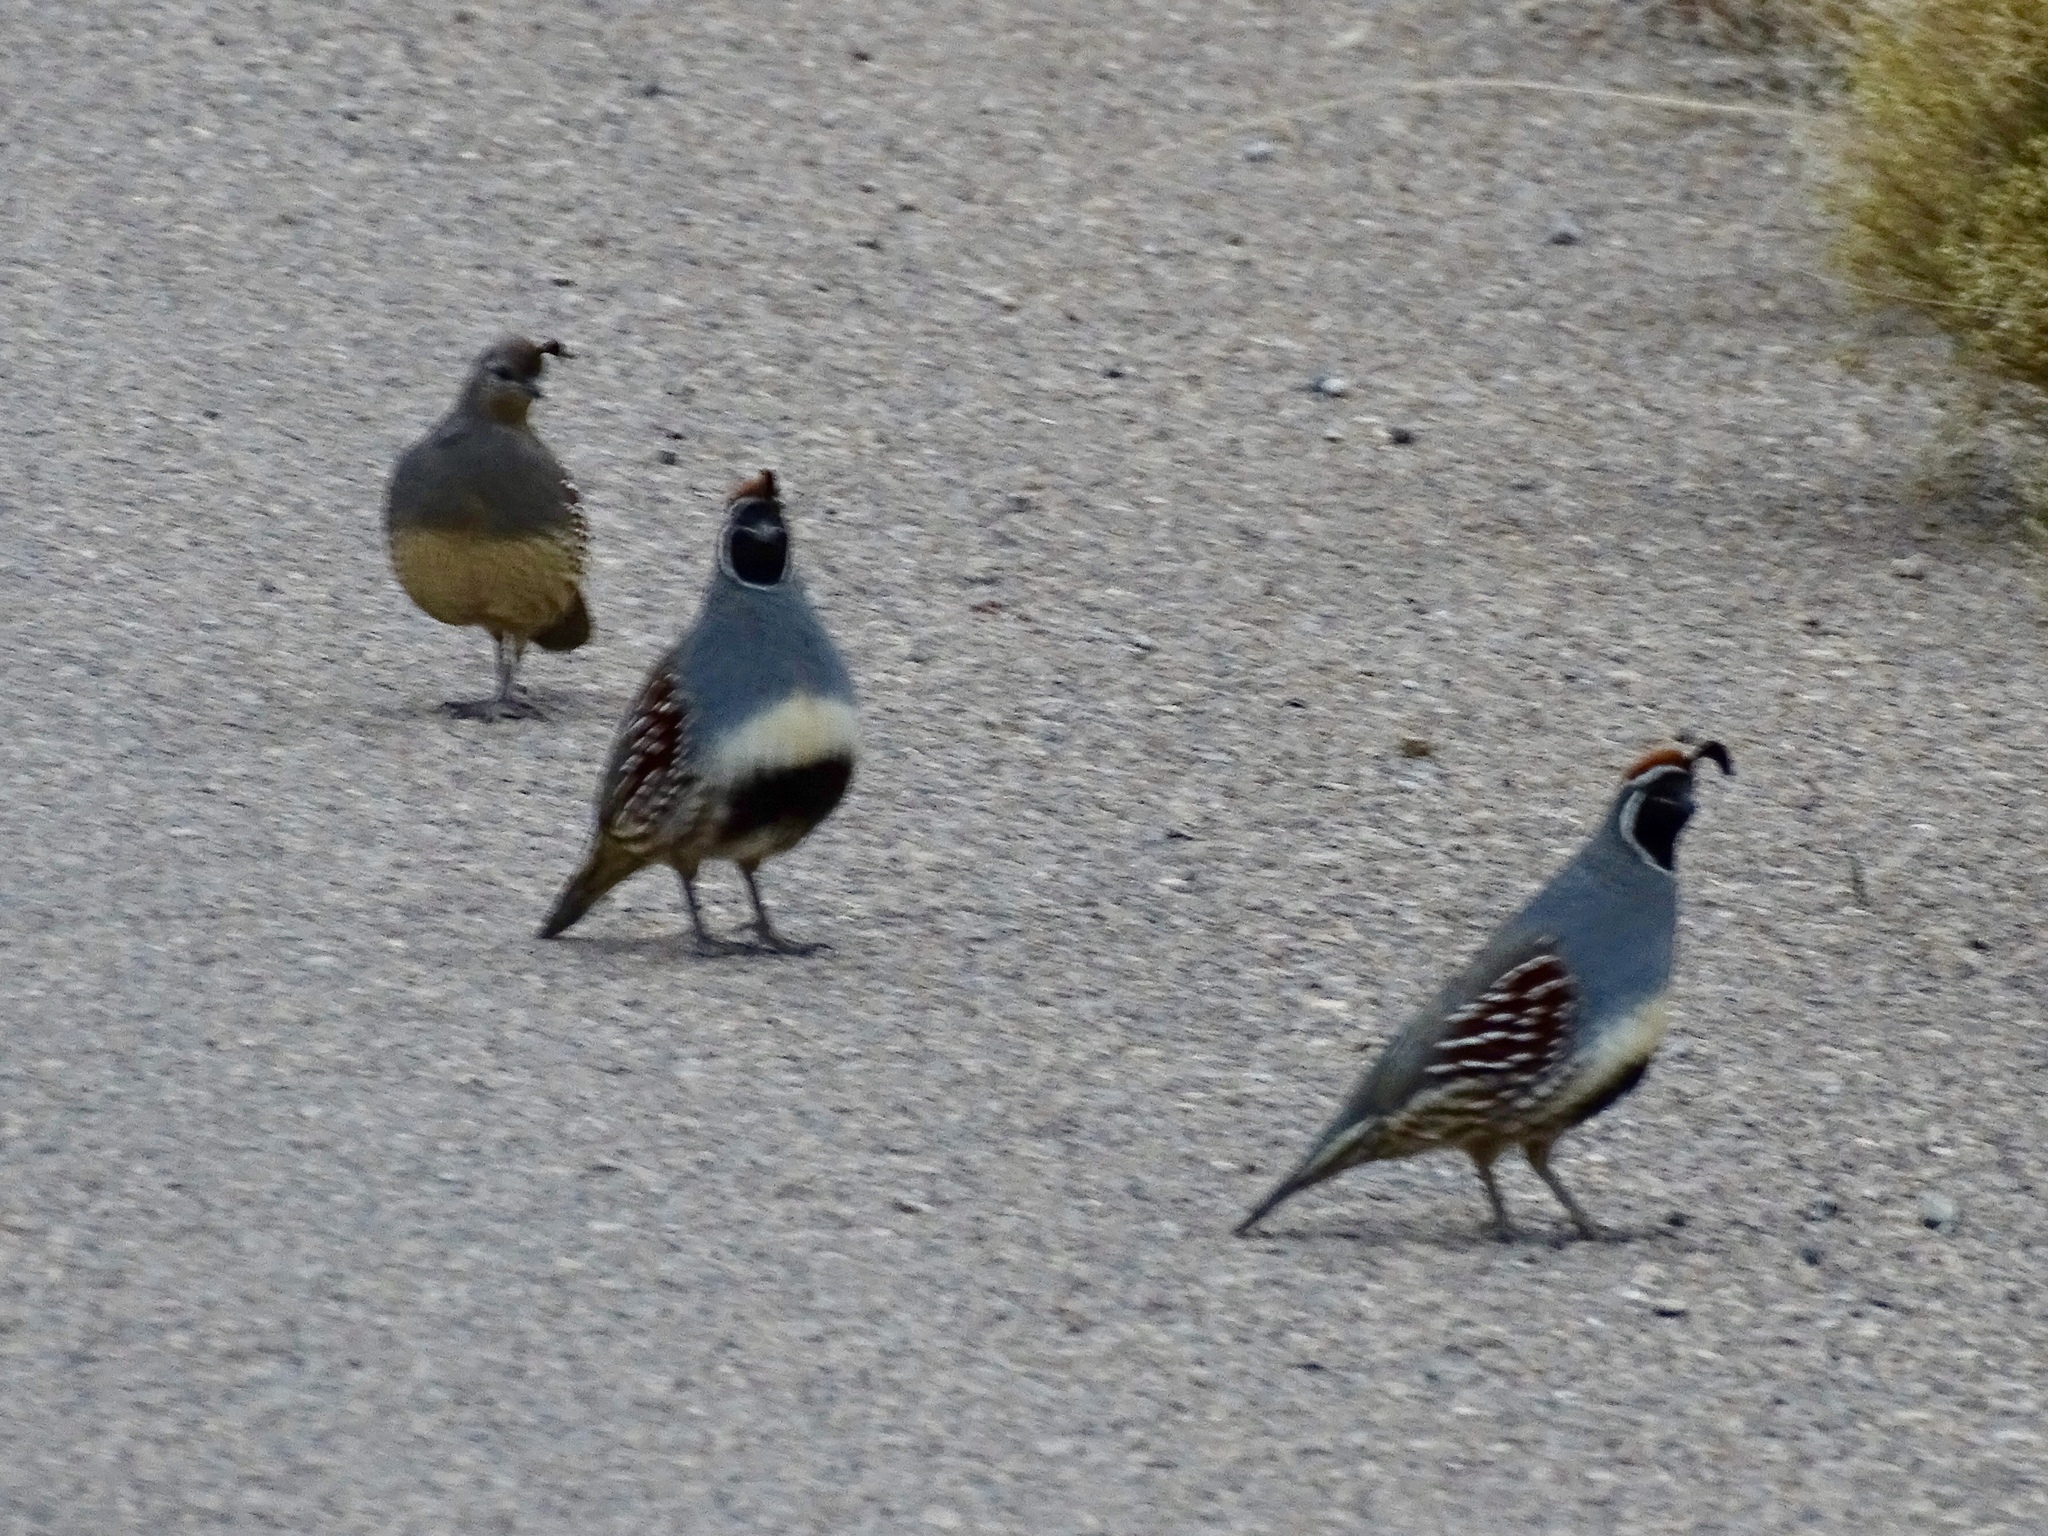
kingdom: Animalia
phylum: Chordata
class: Aves
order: Galliformes
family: Odontophoridae
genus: Callipepla
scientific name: Callipepla gambelii
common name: Gambel's quail
